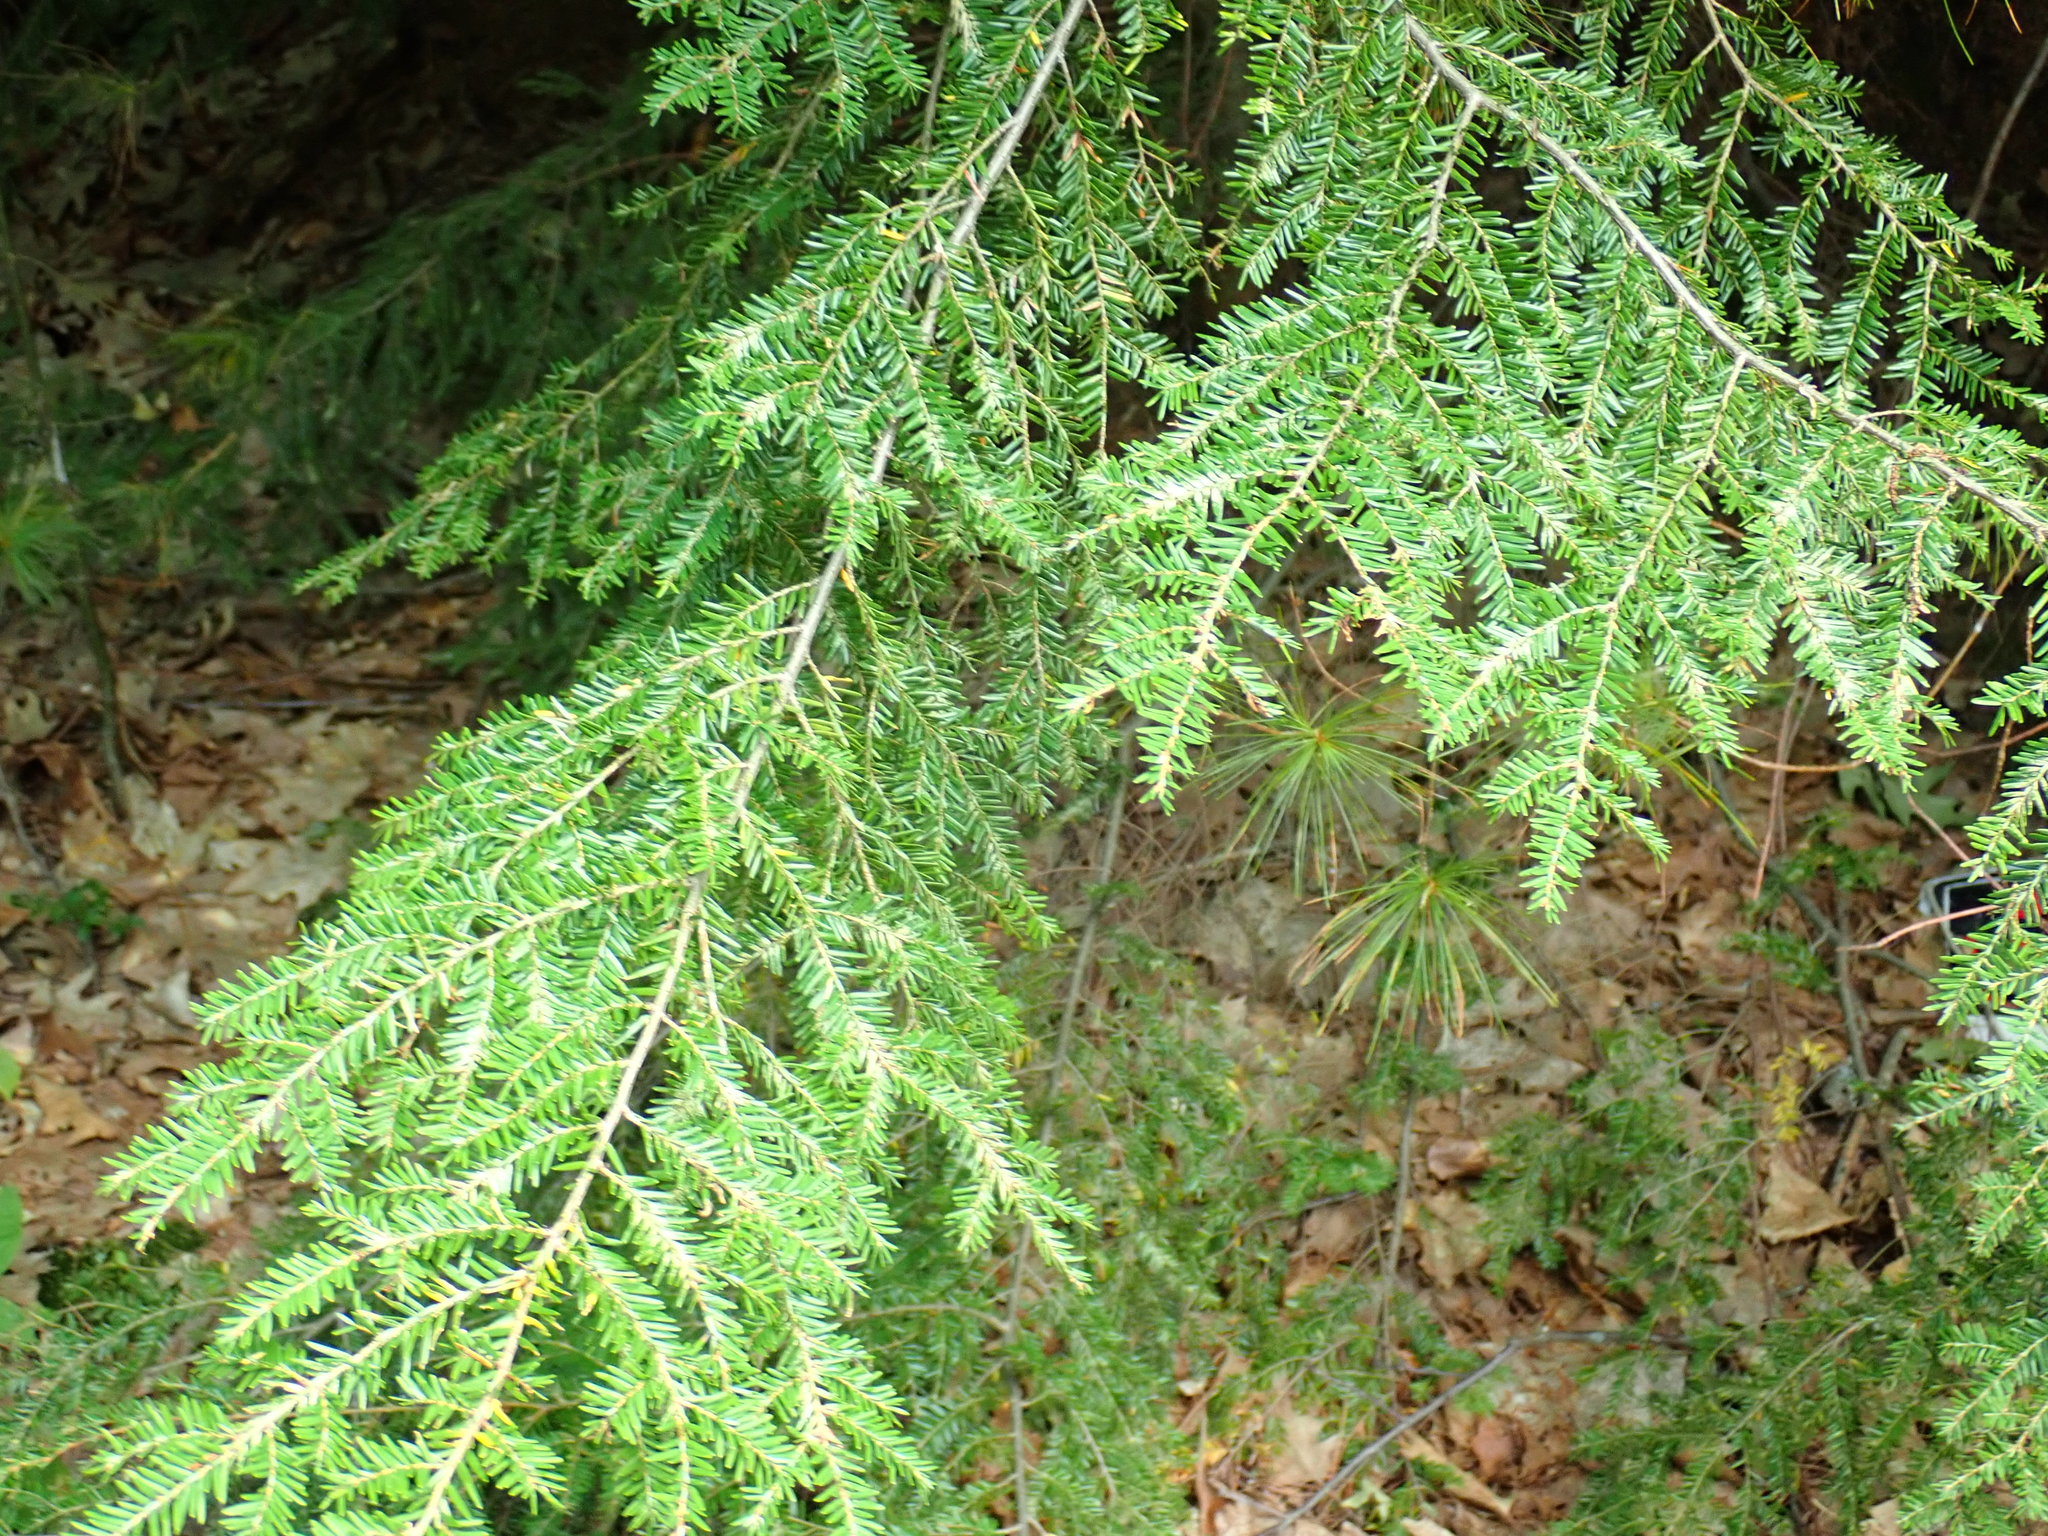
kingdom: Plantae
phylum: Tracheophyta
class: Pinopsida
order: Pinales
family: Pinaceae
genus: Tsuga
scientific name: Tsuga canadensis
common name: Eastern hemlock
